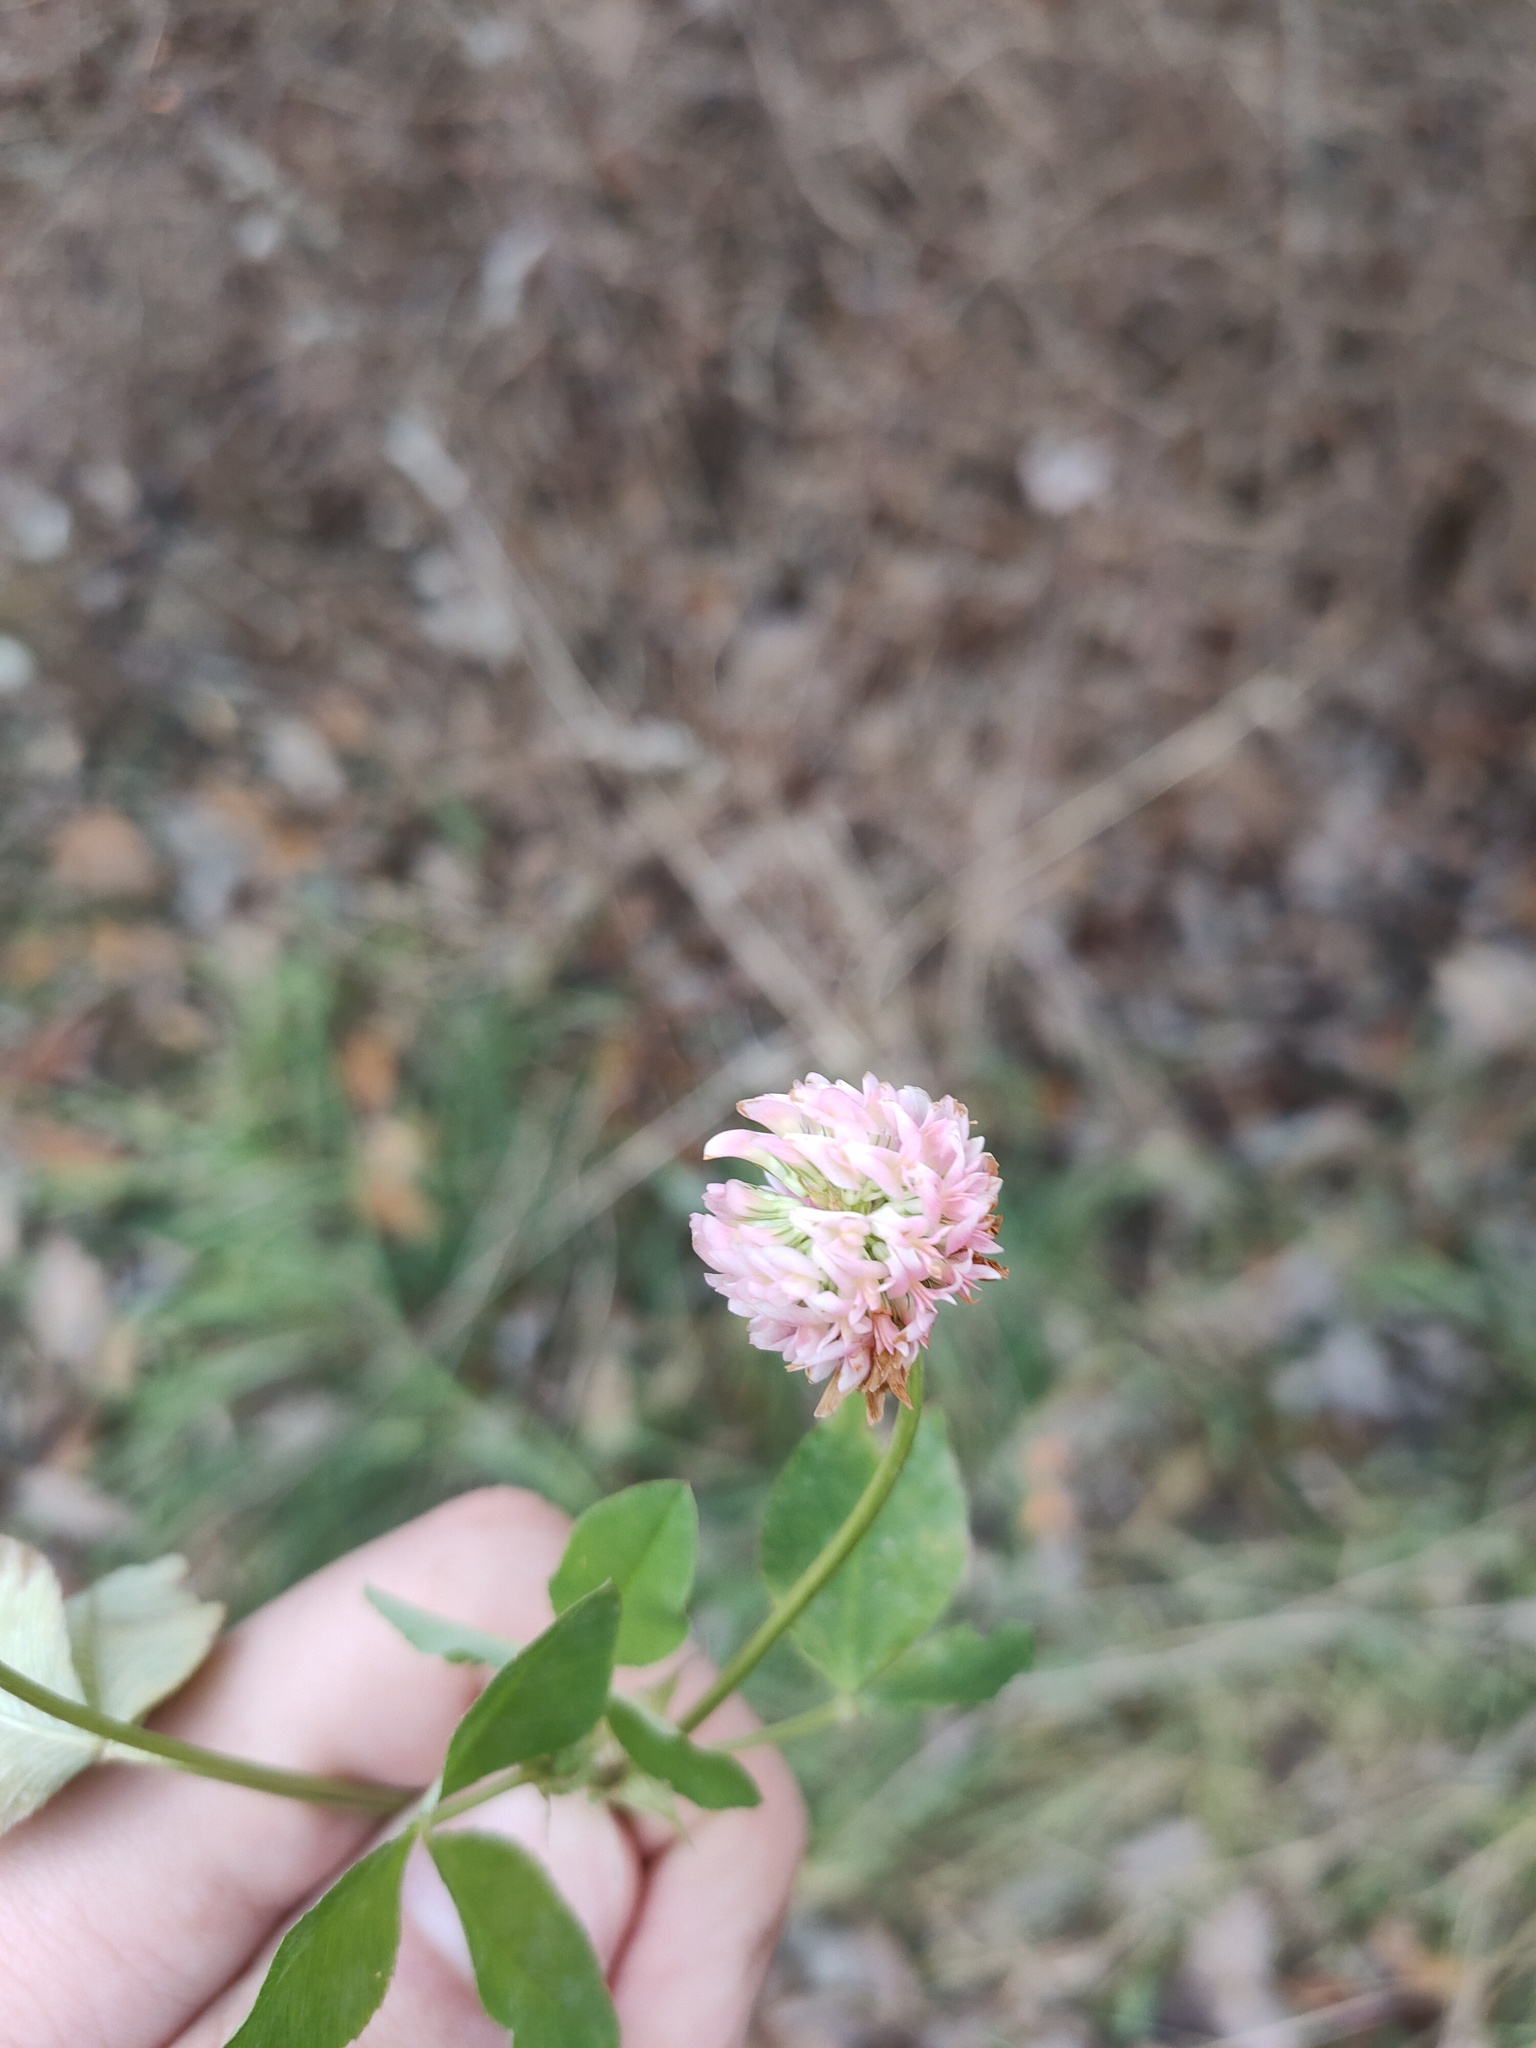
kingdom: Plantae
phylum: Tracheophyta
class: Magnoliopsida
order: Fabales
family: Fabaceae
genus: Trifolium
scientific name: Trifolium hybridum
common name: Alsike clover
